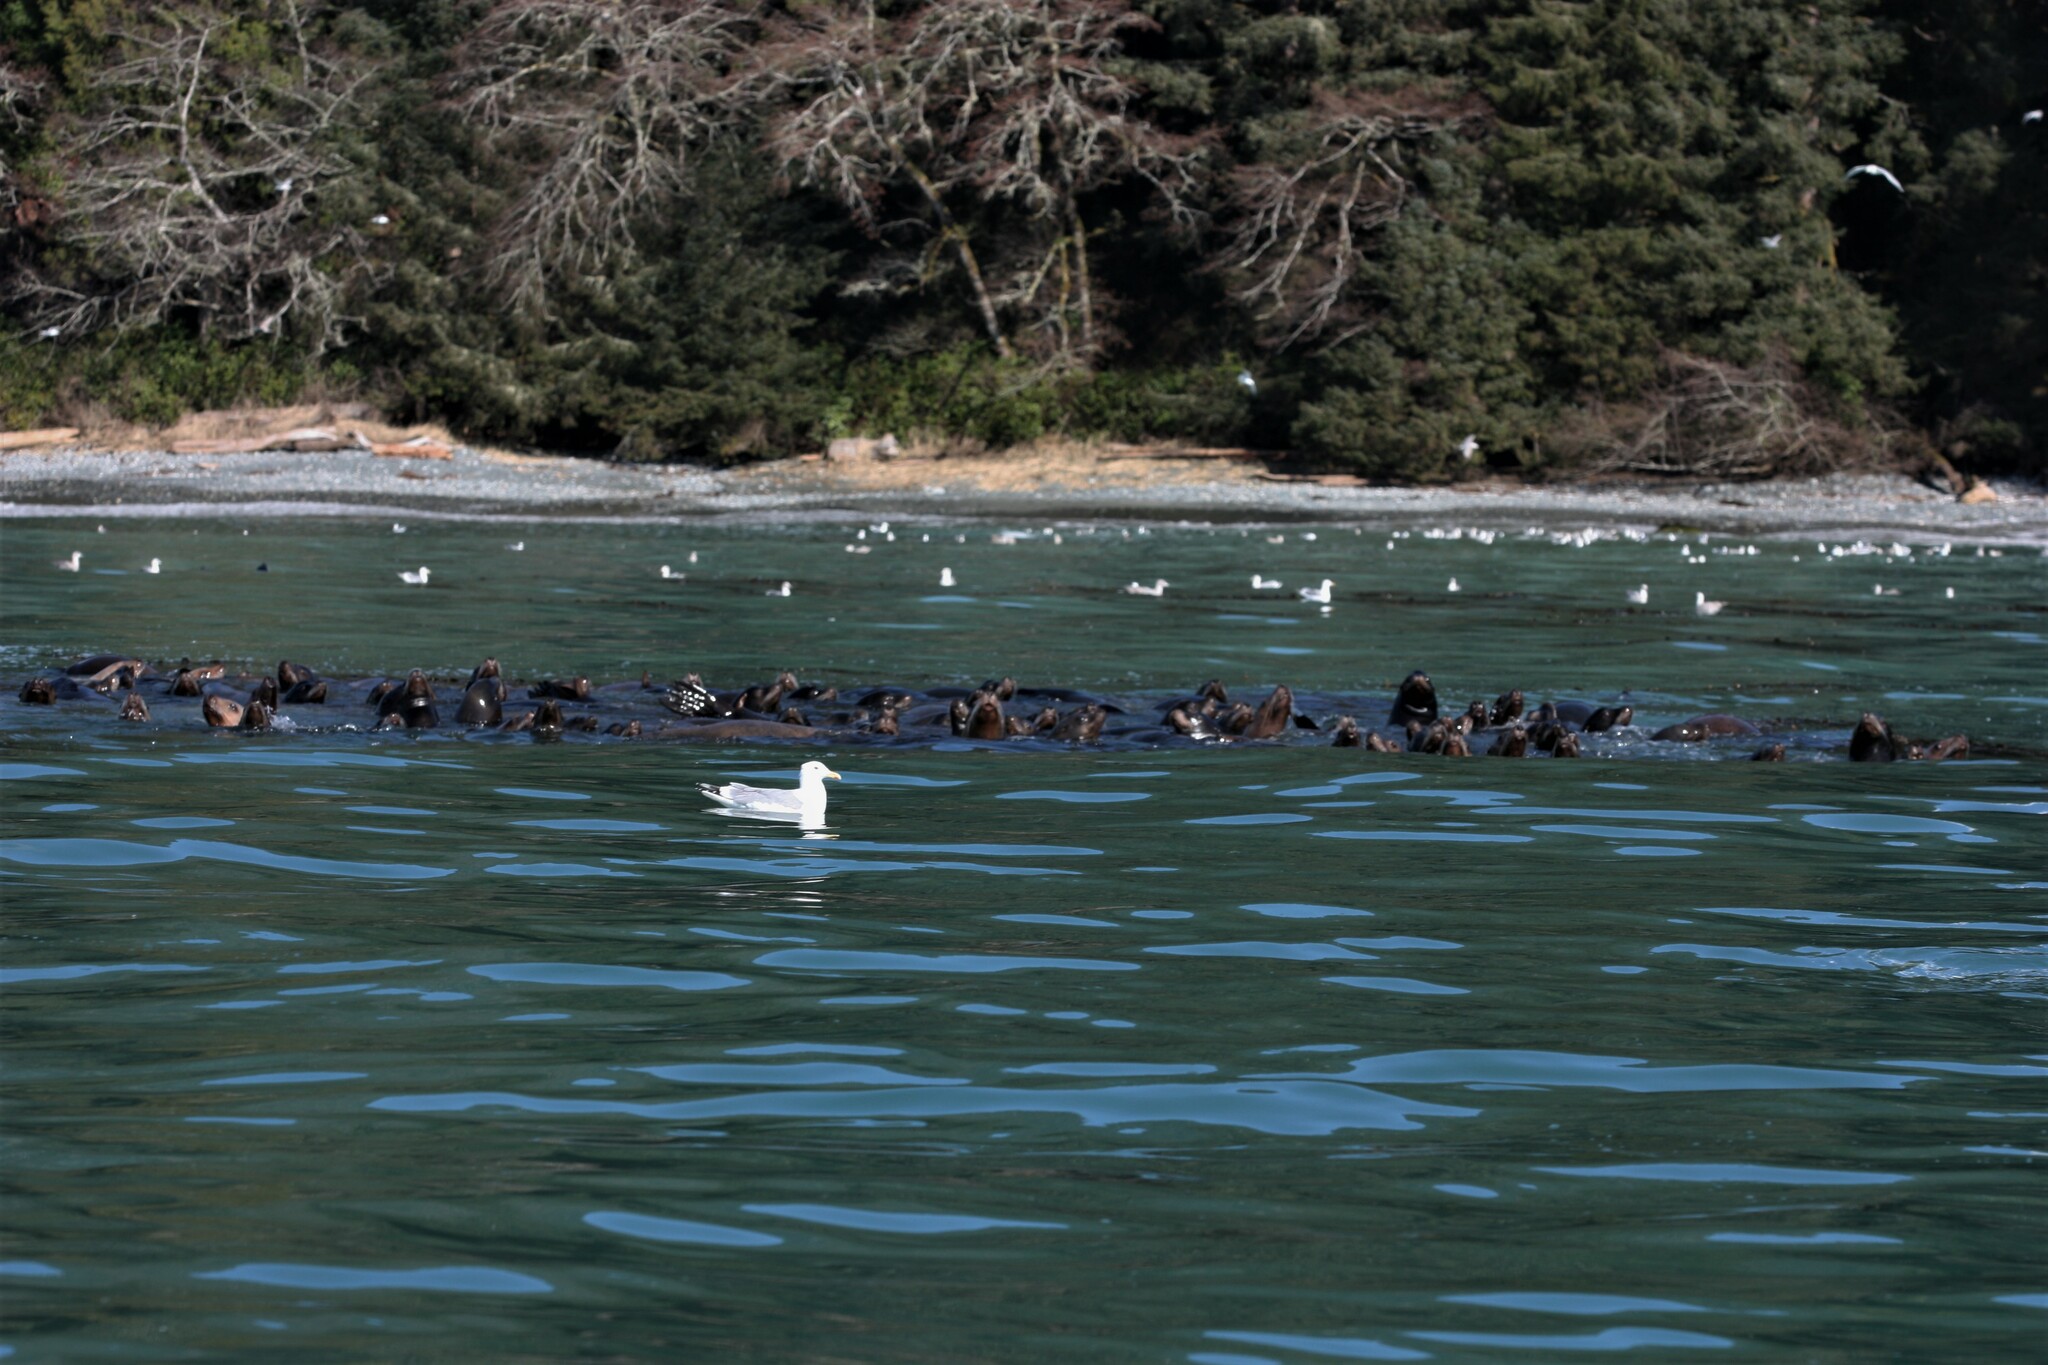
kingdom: Animalia
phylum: Chordata
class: Mammalia
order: Carnivora
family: Otariidae
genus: Eumetopias
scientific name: Eumetopias jubatus
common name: Steller sea lion
